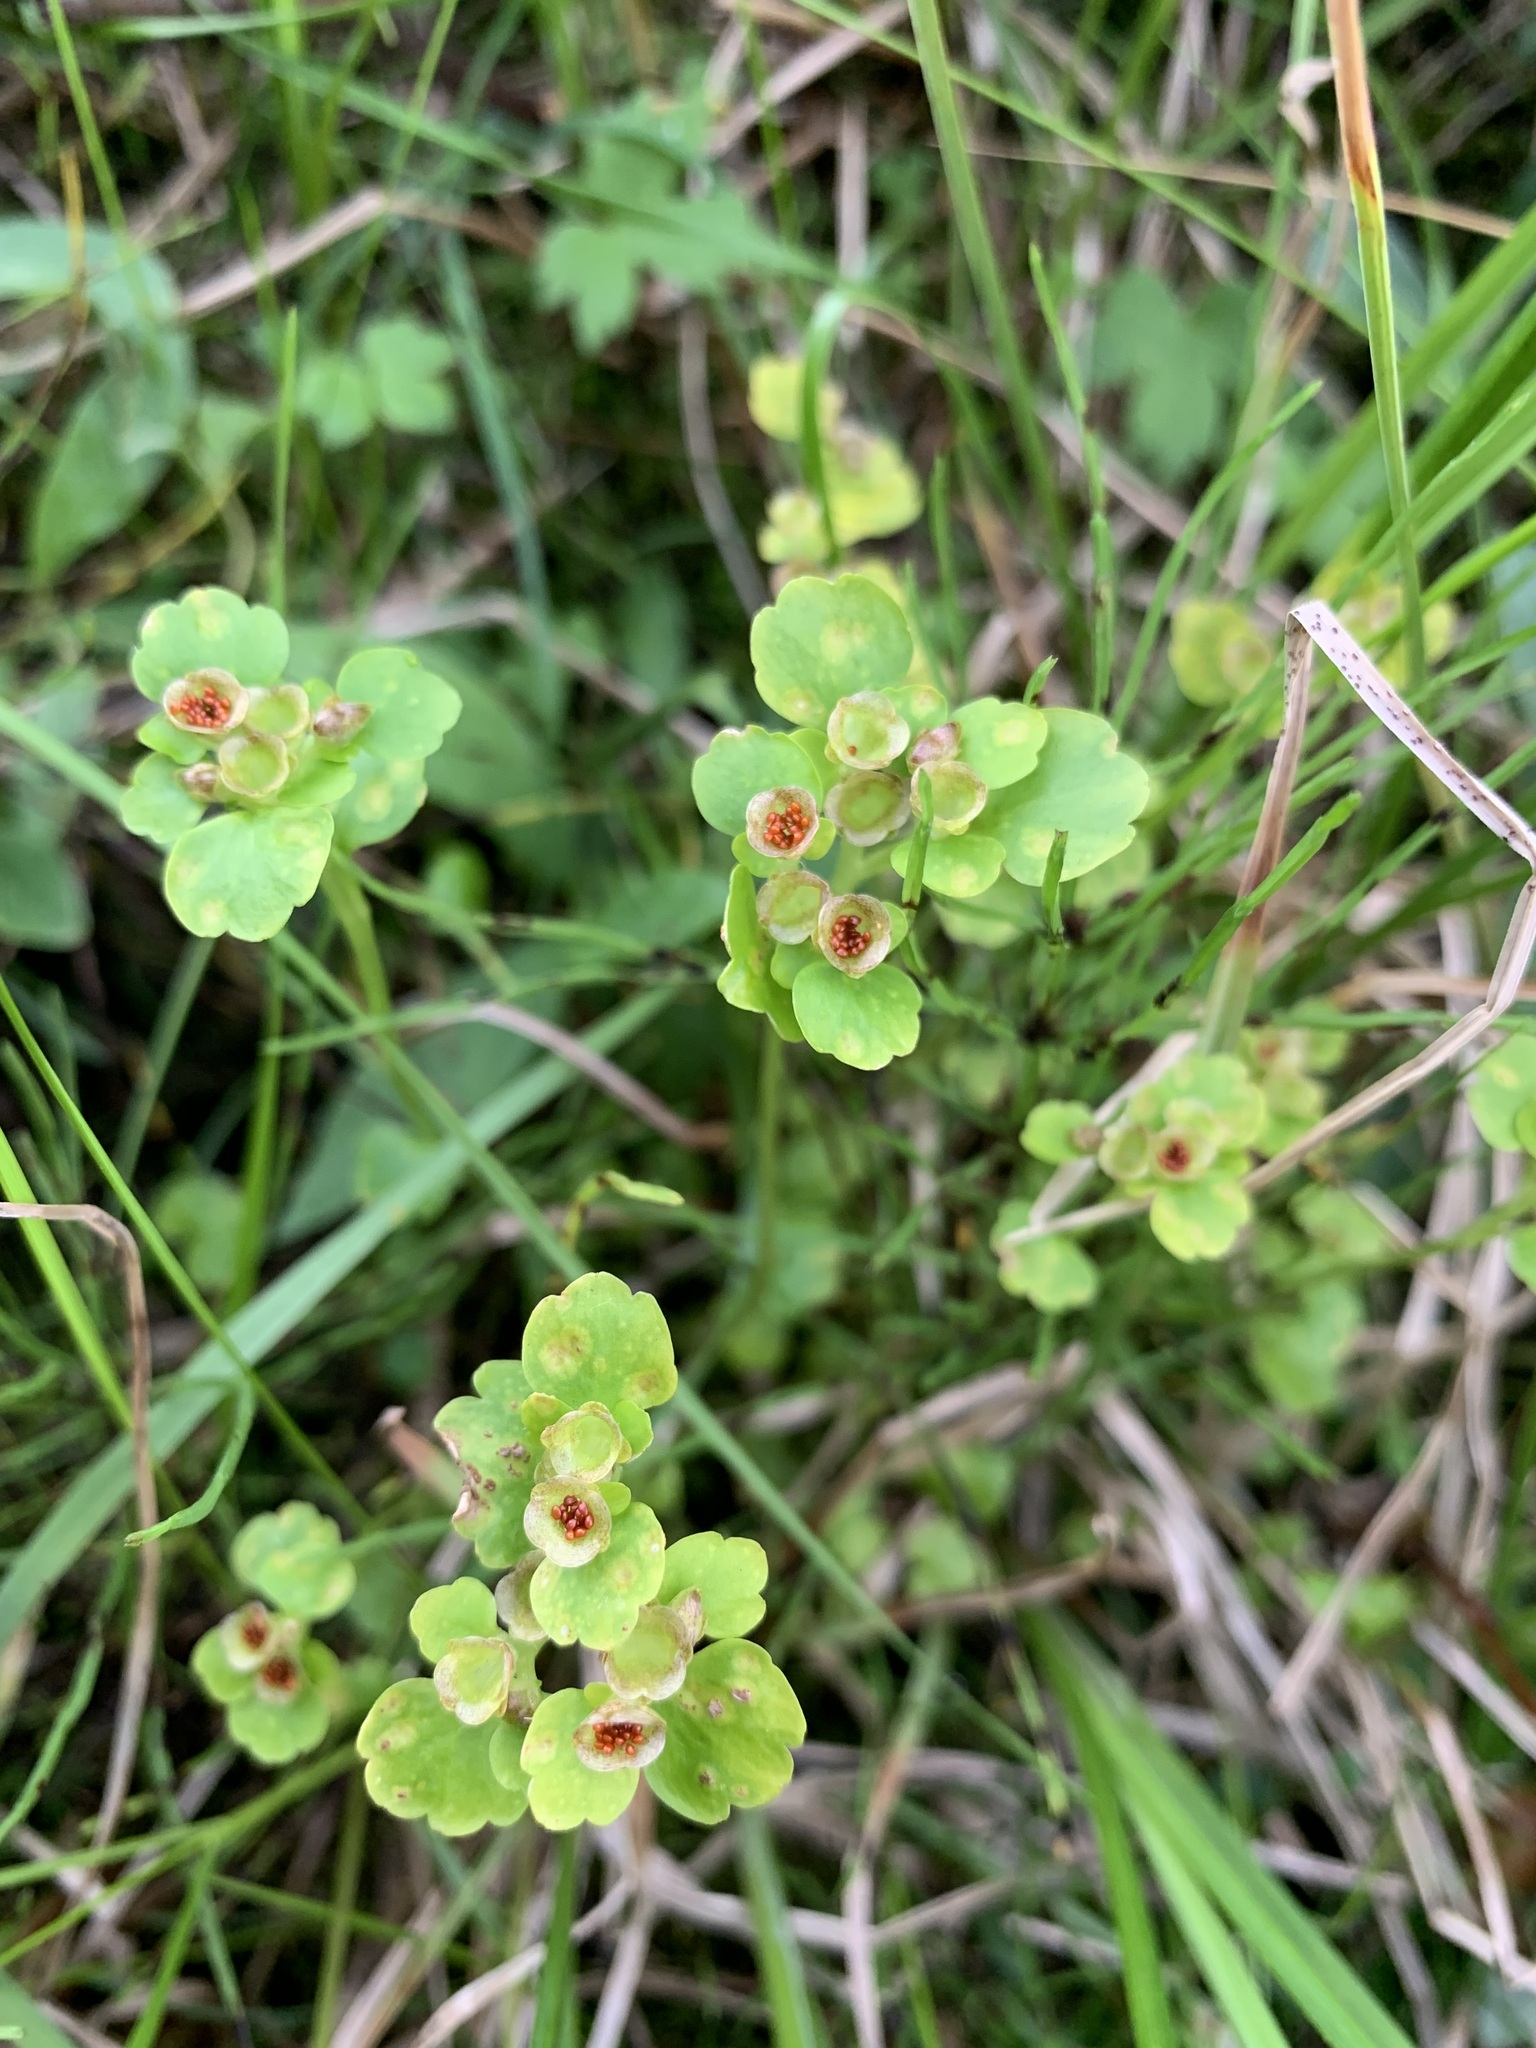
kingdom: Plantae
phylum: Tracheophyta
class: Magnoliopsida
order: Saxifragales
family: Saxifragaceae
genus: Chrysosplenium
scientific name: Chrysosplenium tetrandrum
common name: Green saxifrage
